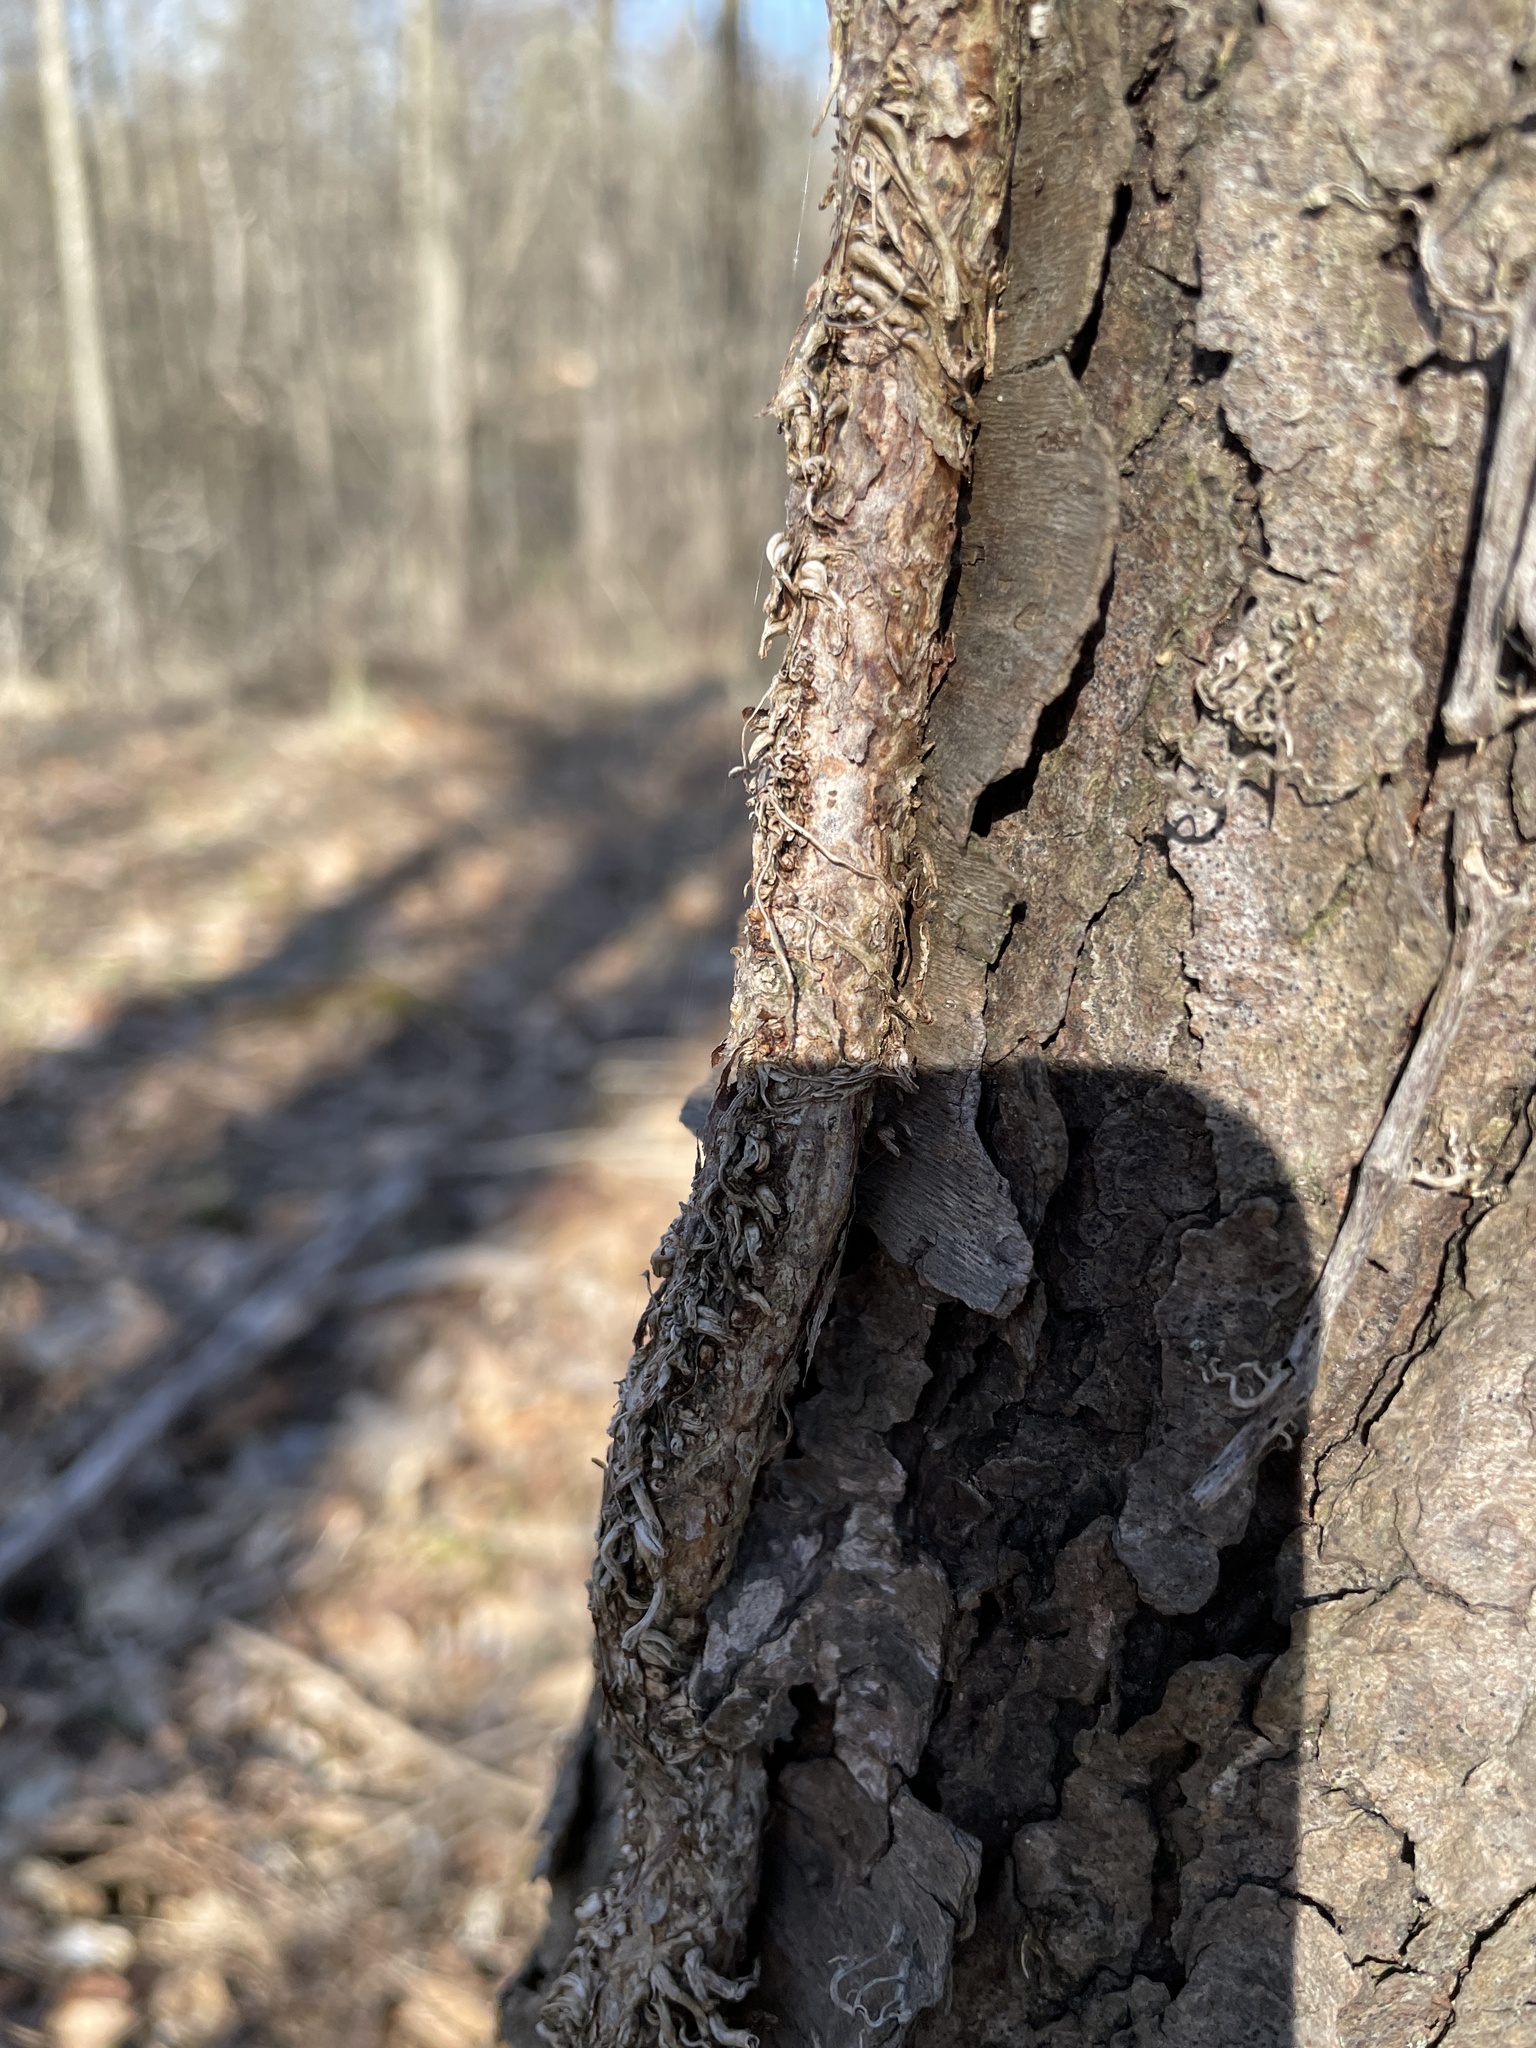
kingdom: Plantae
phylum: Tracheophyta
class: Magnoliopsida
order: Sapindales
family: Anacardiaceae
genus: Toxicodendron
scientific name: Toxicodendron radicans
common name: Poison ivy
